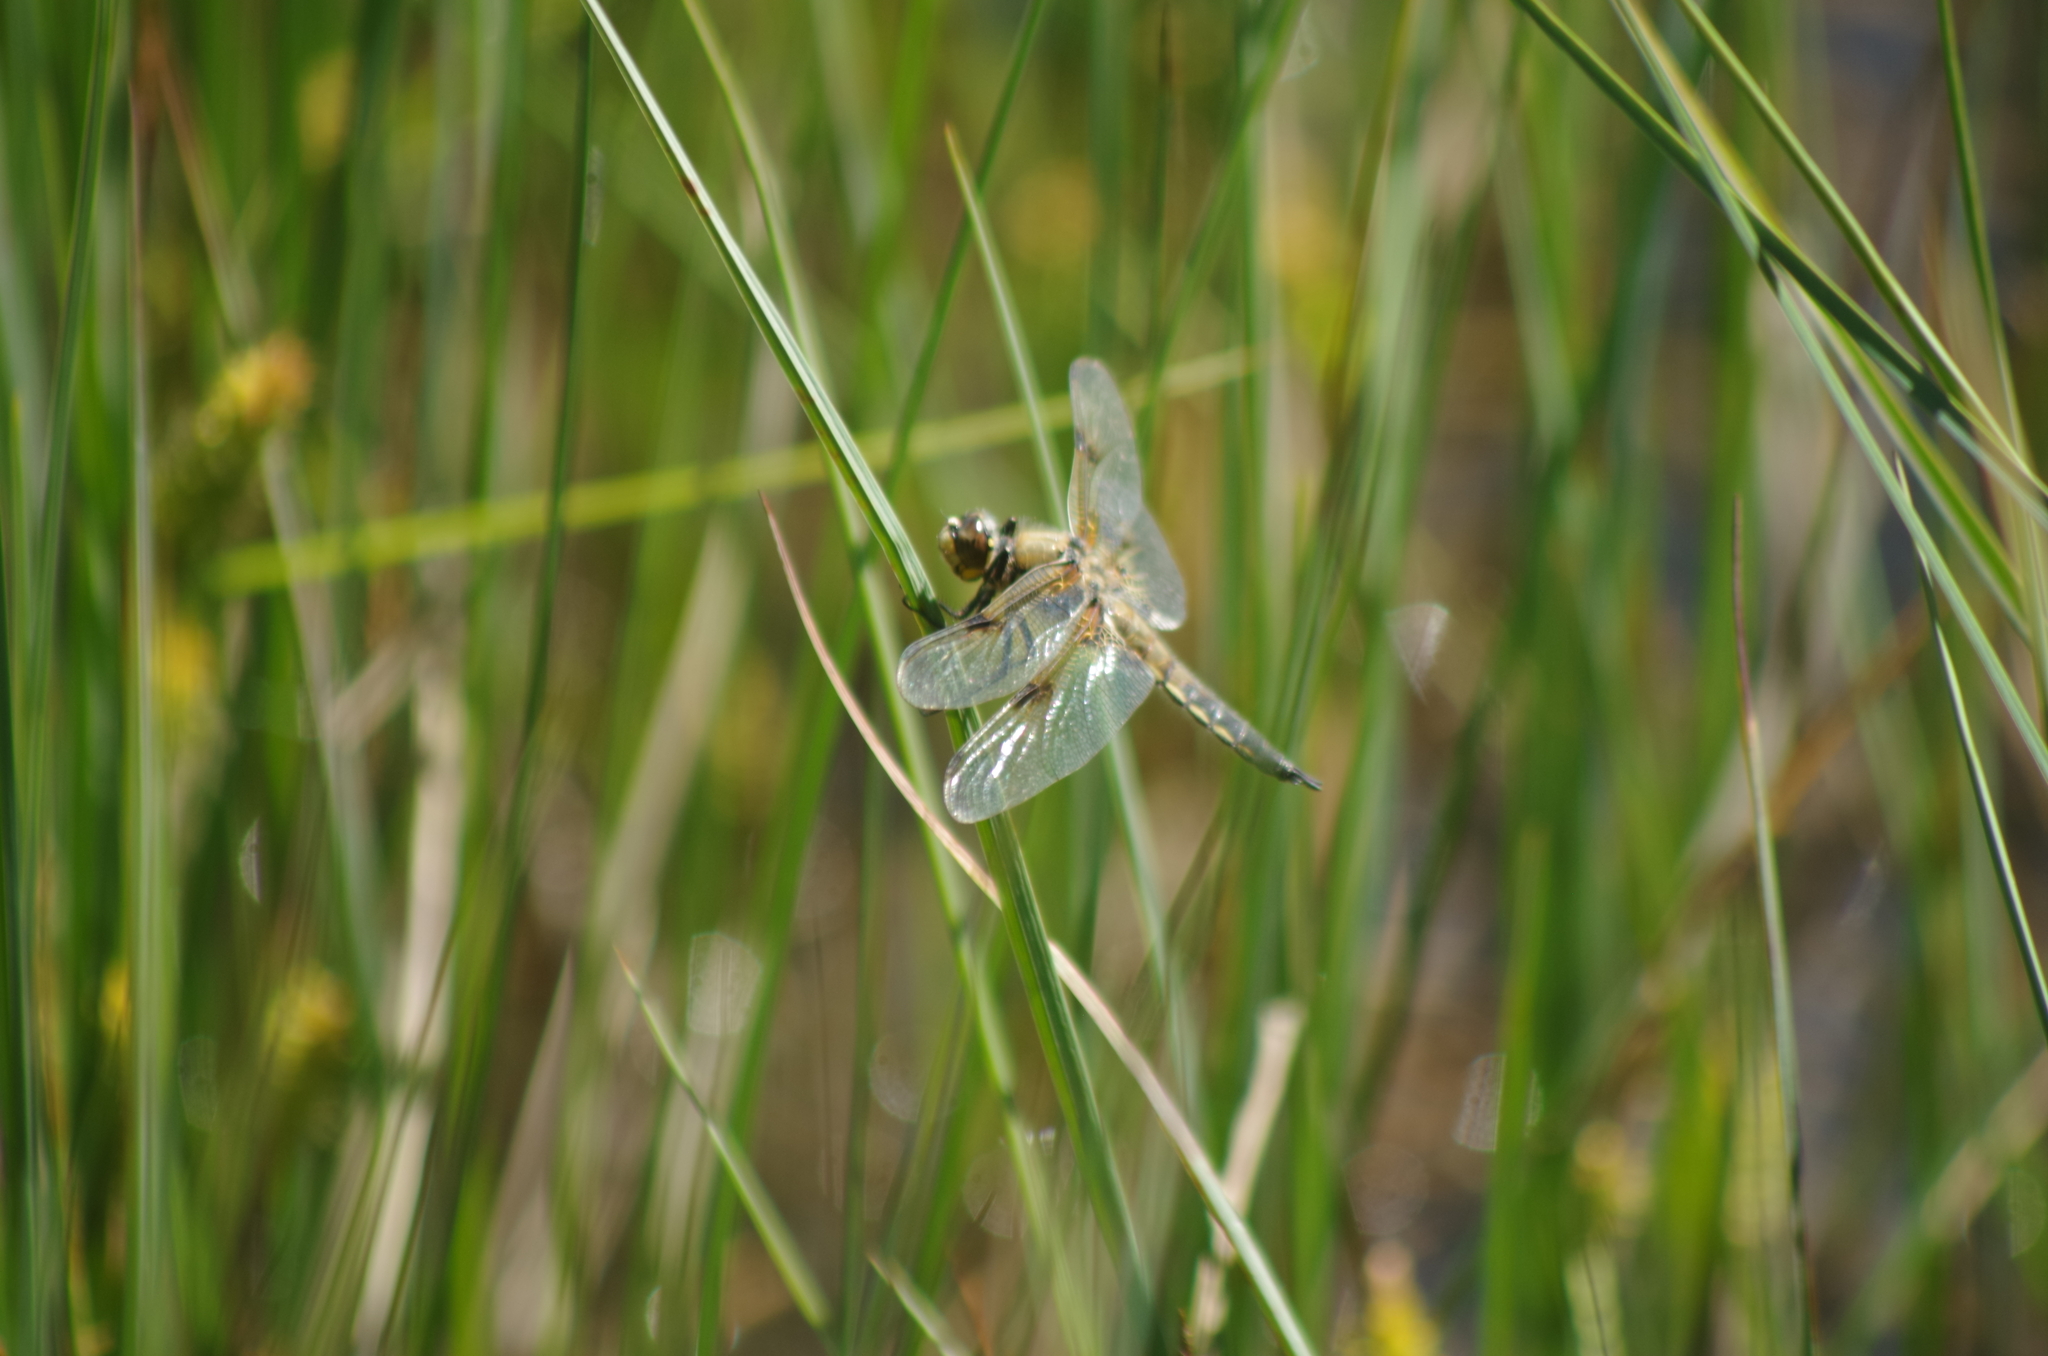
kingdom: Animalia
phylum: Arthropoda
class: Insecta
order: Odonata
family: Libellulidae
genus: Libellula
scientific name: Libellula quadrimaculata
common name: Four-spotted chaser
